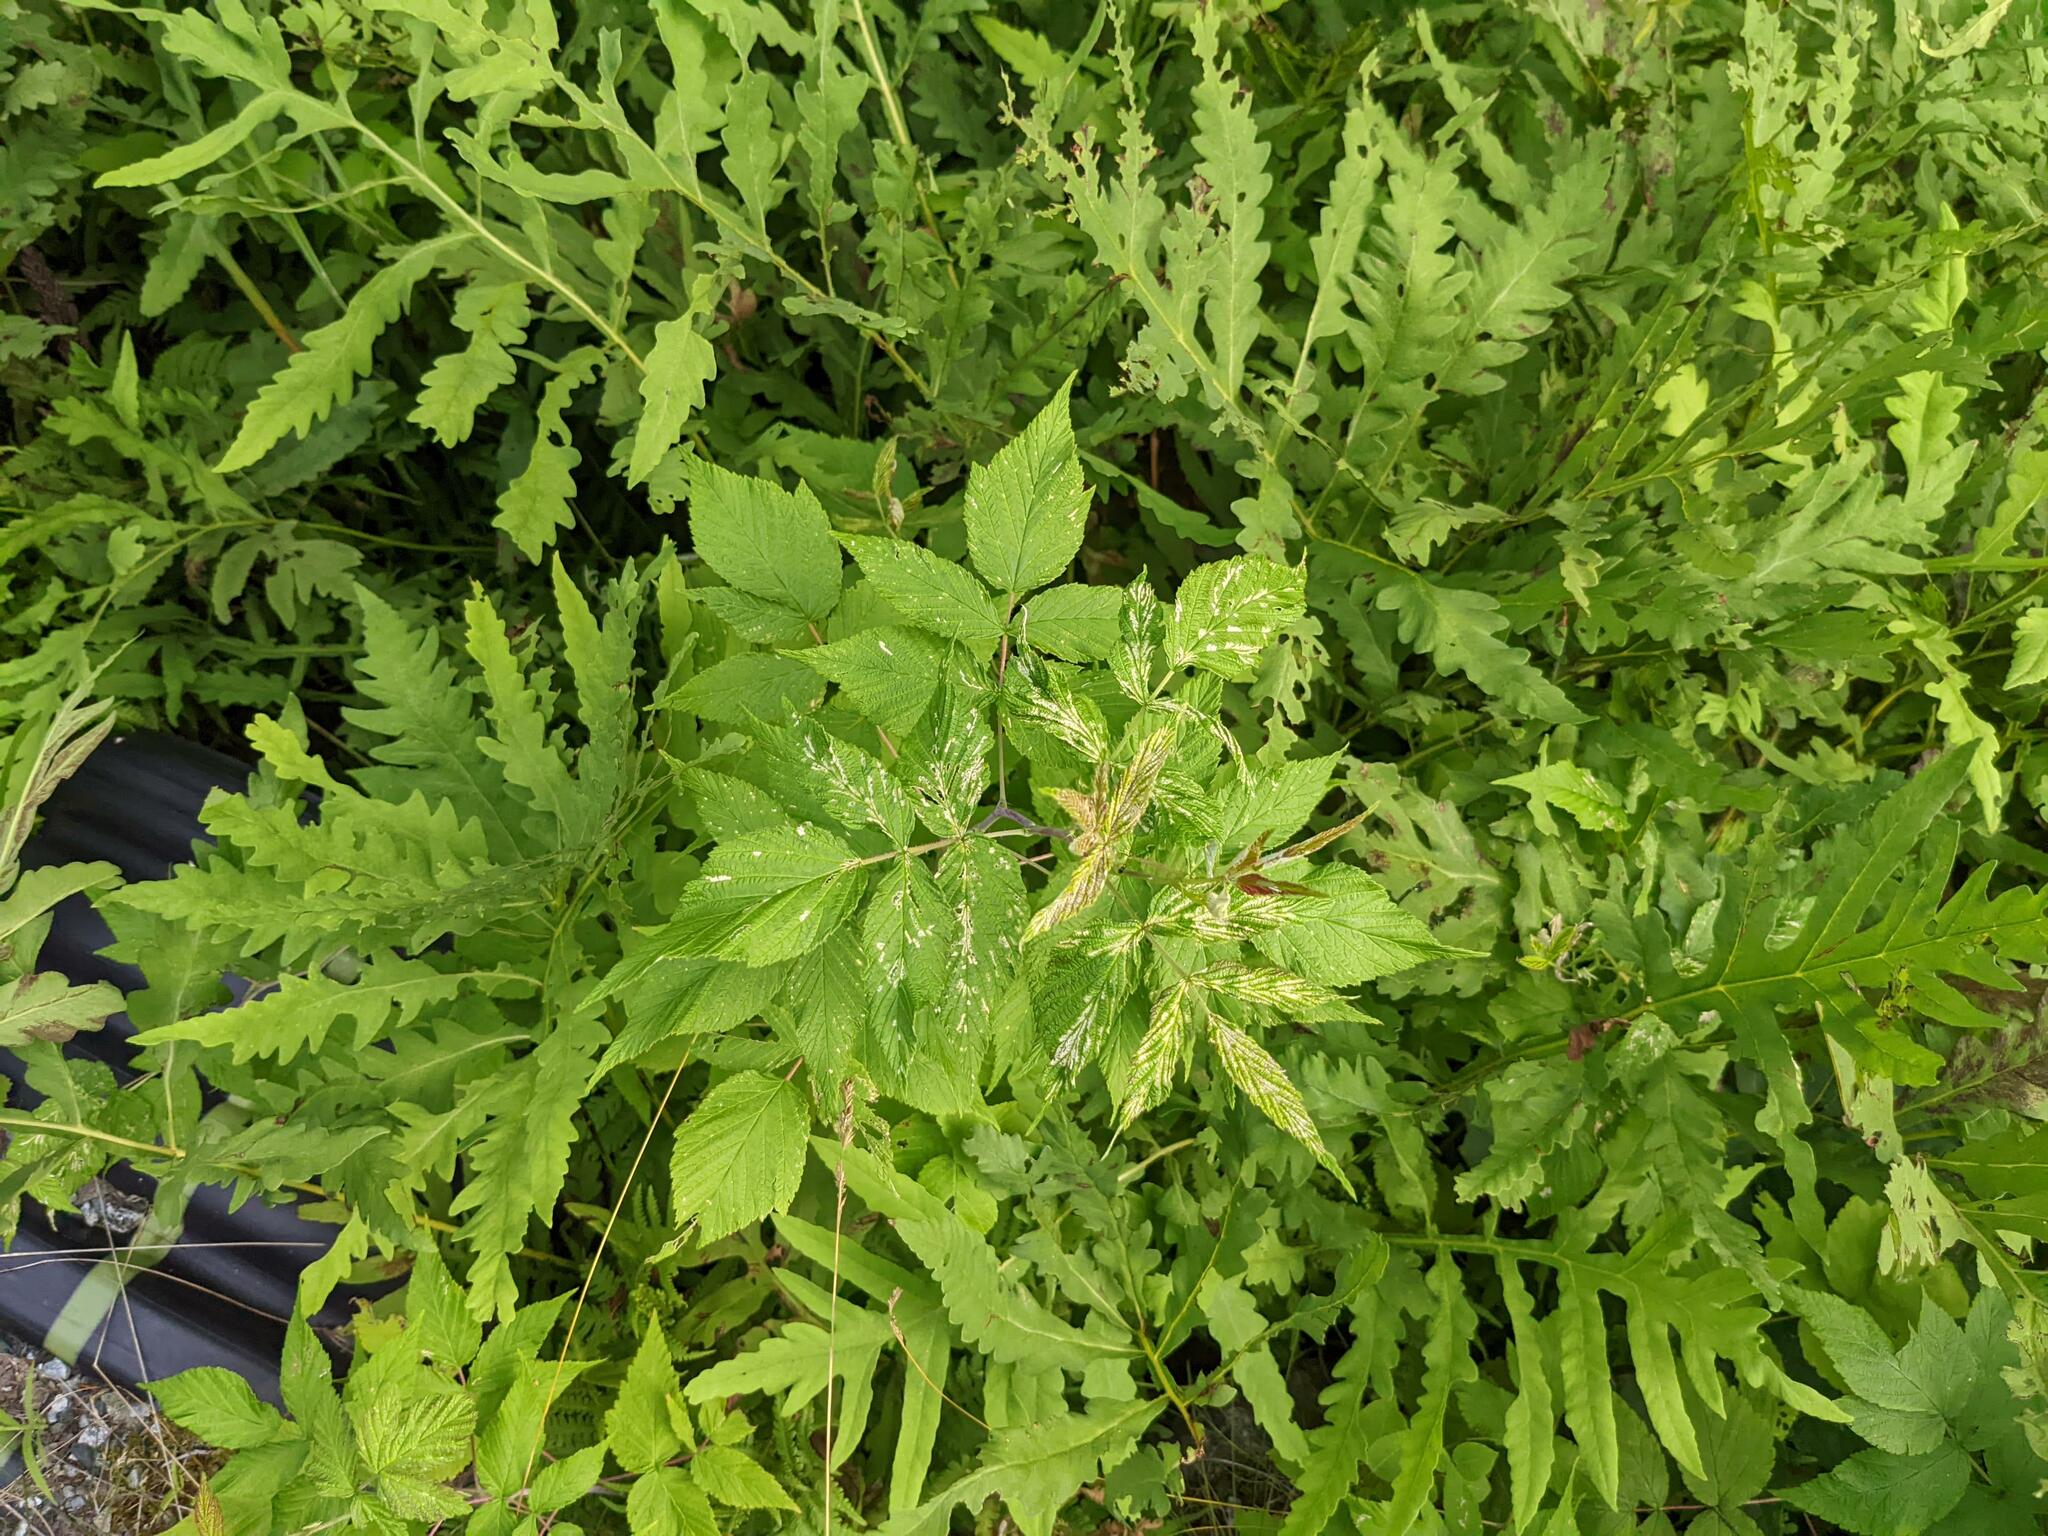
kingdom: Plantae
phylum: Tracheophyta
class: Polypodiopsida
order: Polypodiales
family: Onocleaceae
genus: Onoclea
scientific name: Onoclea sensibilis
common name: Sensitive fern
